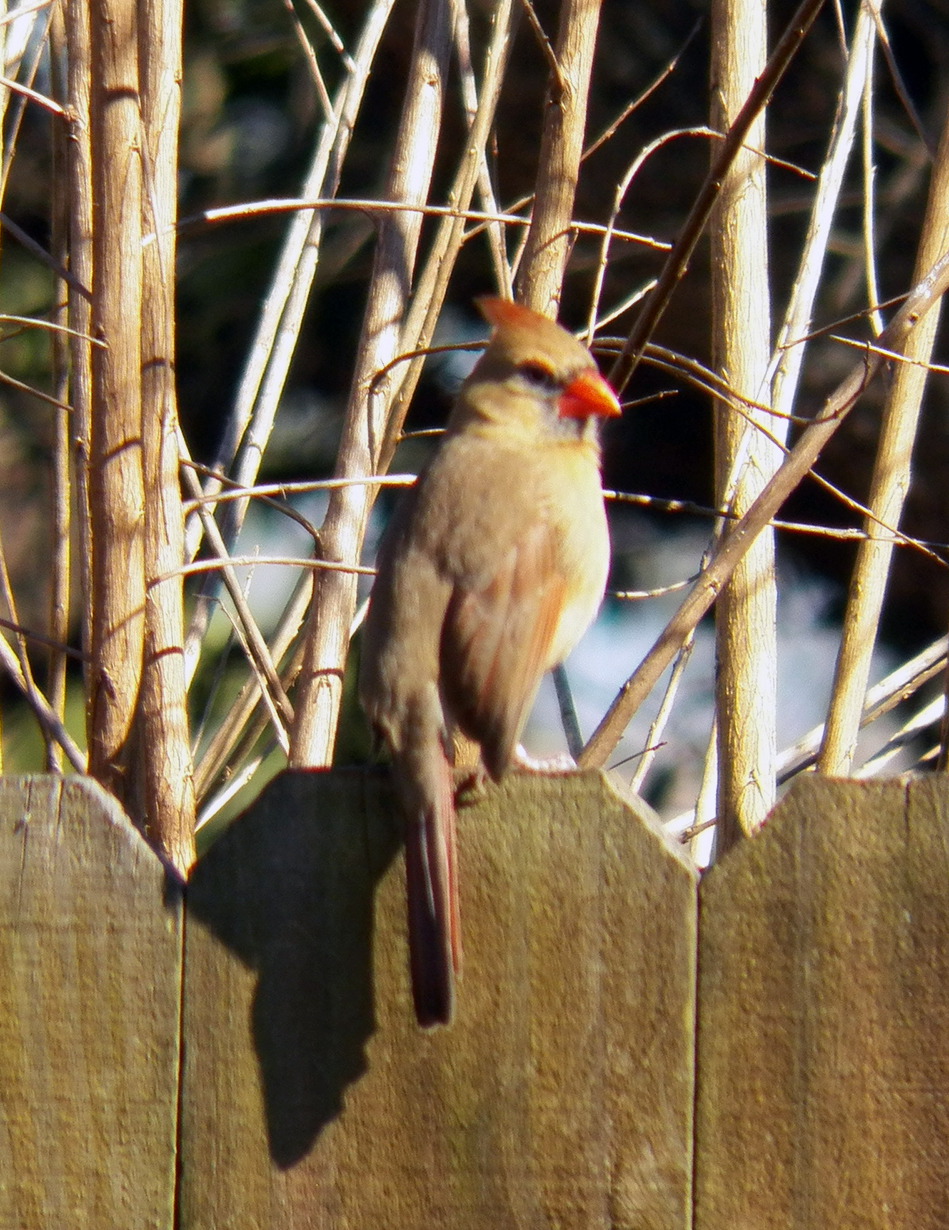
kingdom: Animalia
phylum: Chordata
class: Aves
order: Passeriformes
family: Cardinalidae
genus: Cardinalis
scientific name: Cardinalis cardinalis
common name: Northern cardinal
